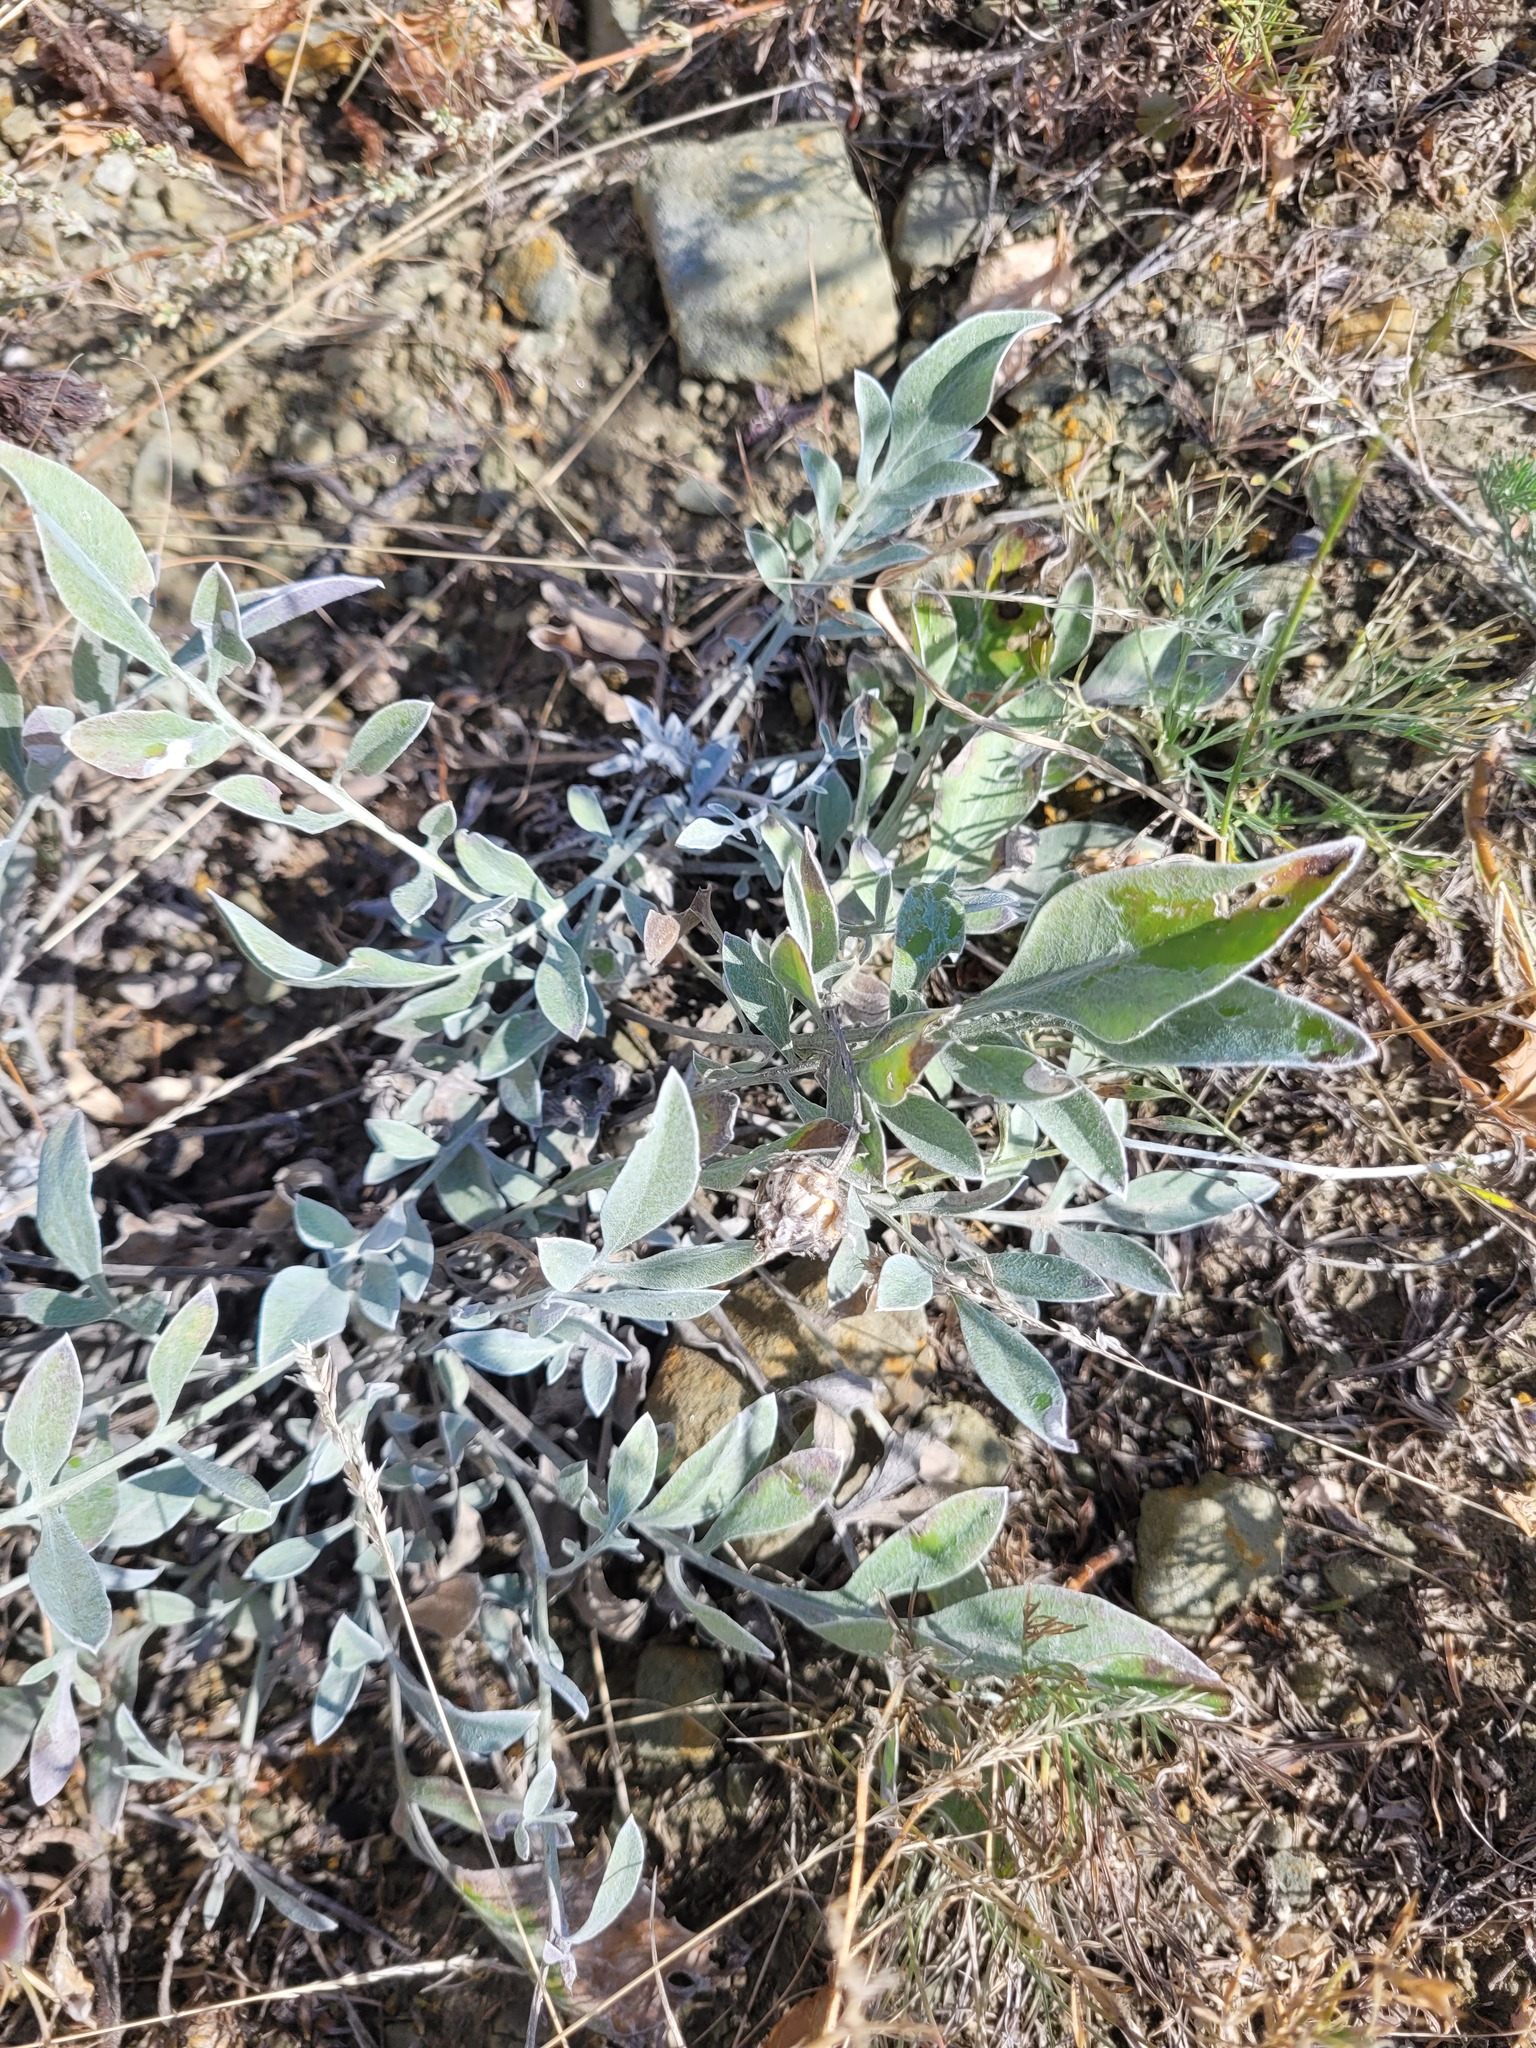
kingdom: Plantae
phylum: Tracheophyta
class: Magnoliopsida
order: Asterales
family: Asteraceae
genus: Psephellus
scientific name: Psephellus marschallianus
